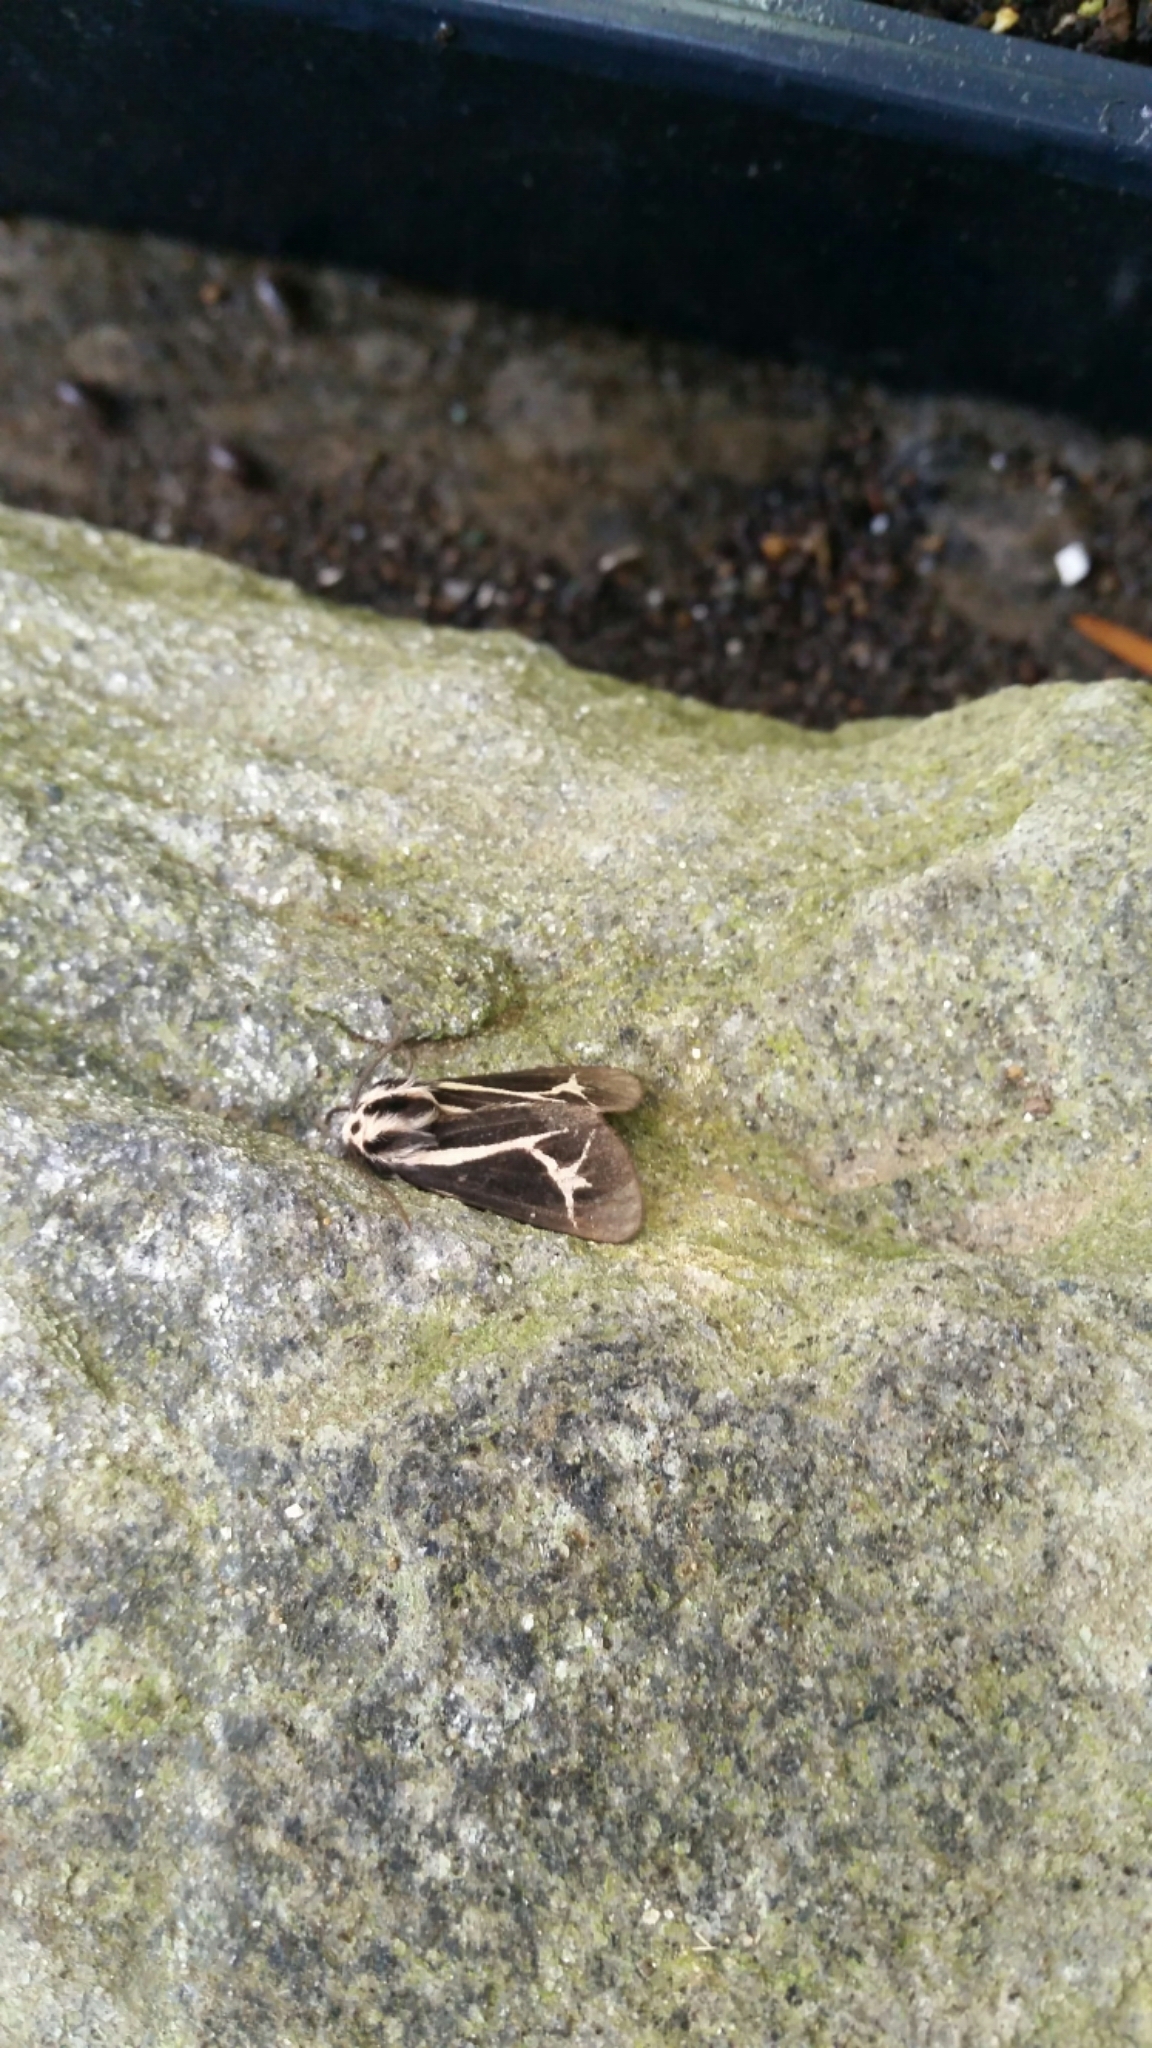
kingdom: Animalia
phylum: Arthropoda
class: Insecta
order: Lepidoptera
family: Erebidae
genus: Apantesis
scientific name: Apantesis
